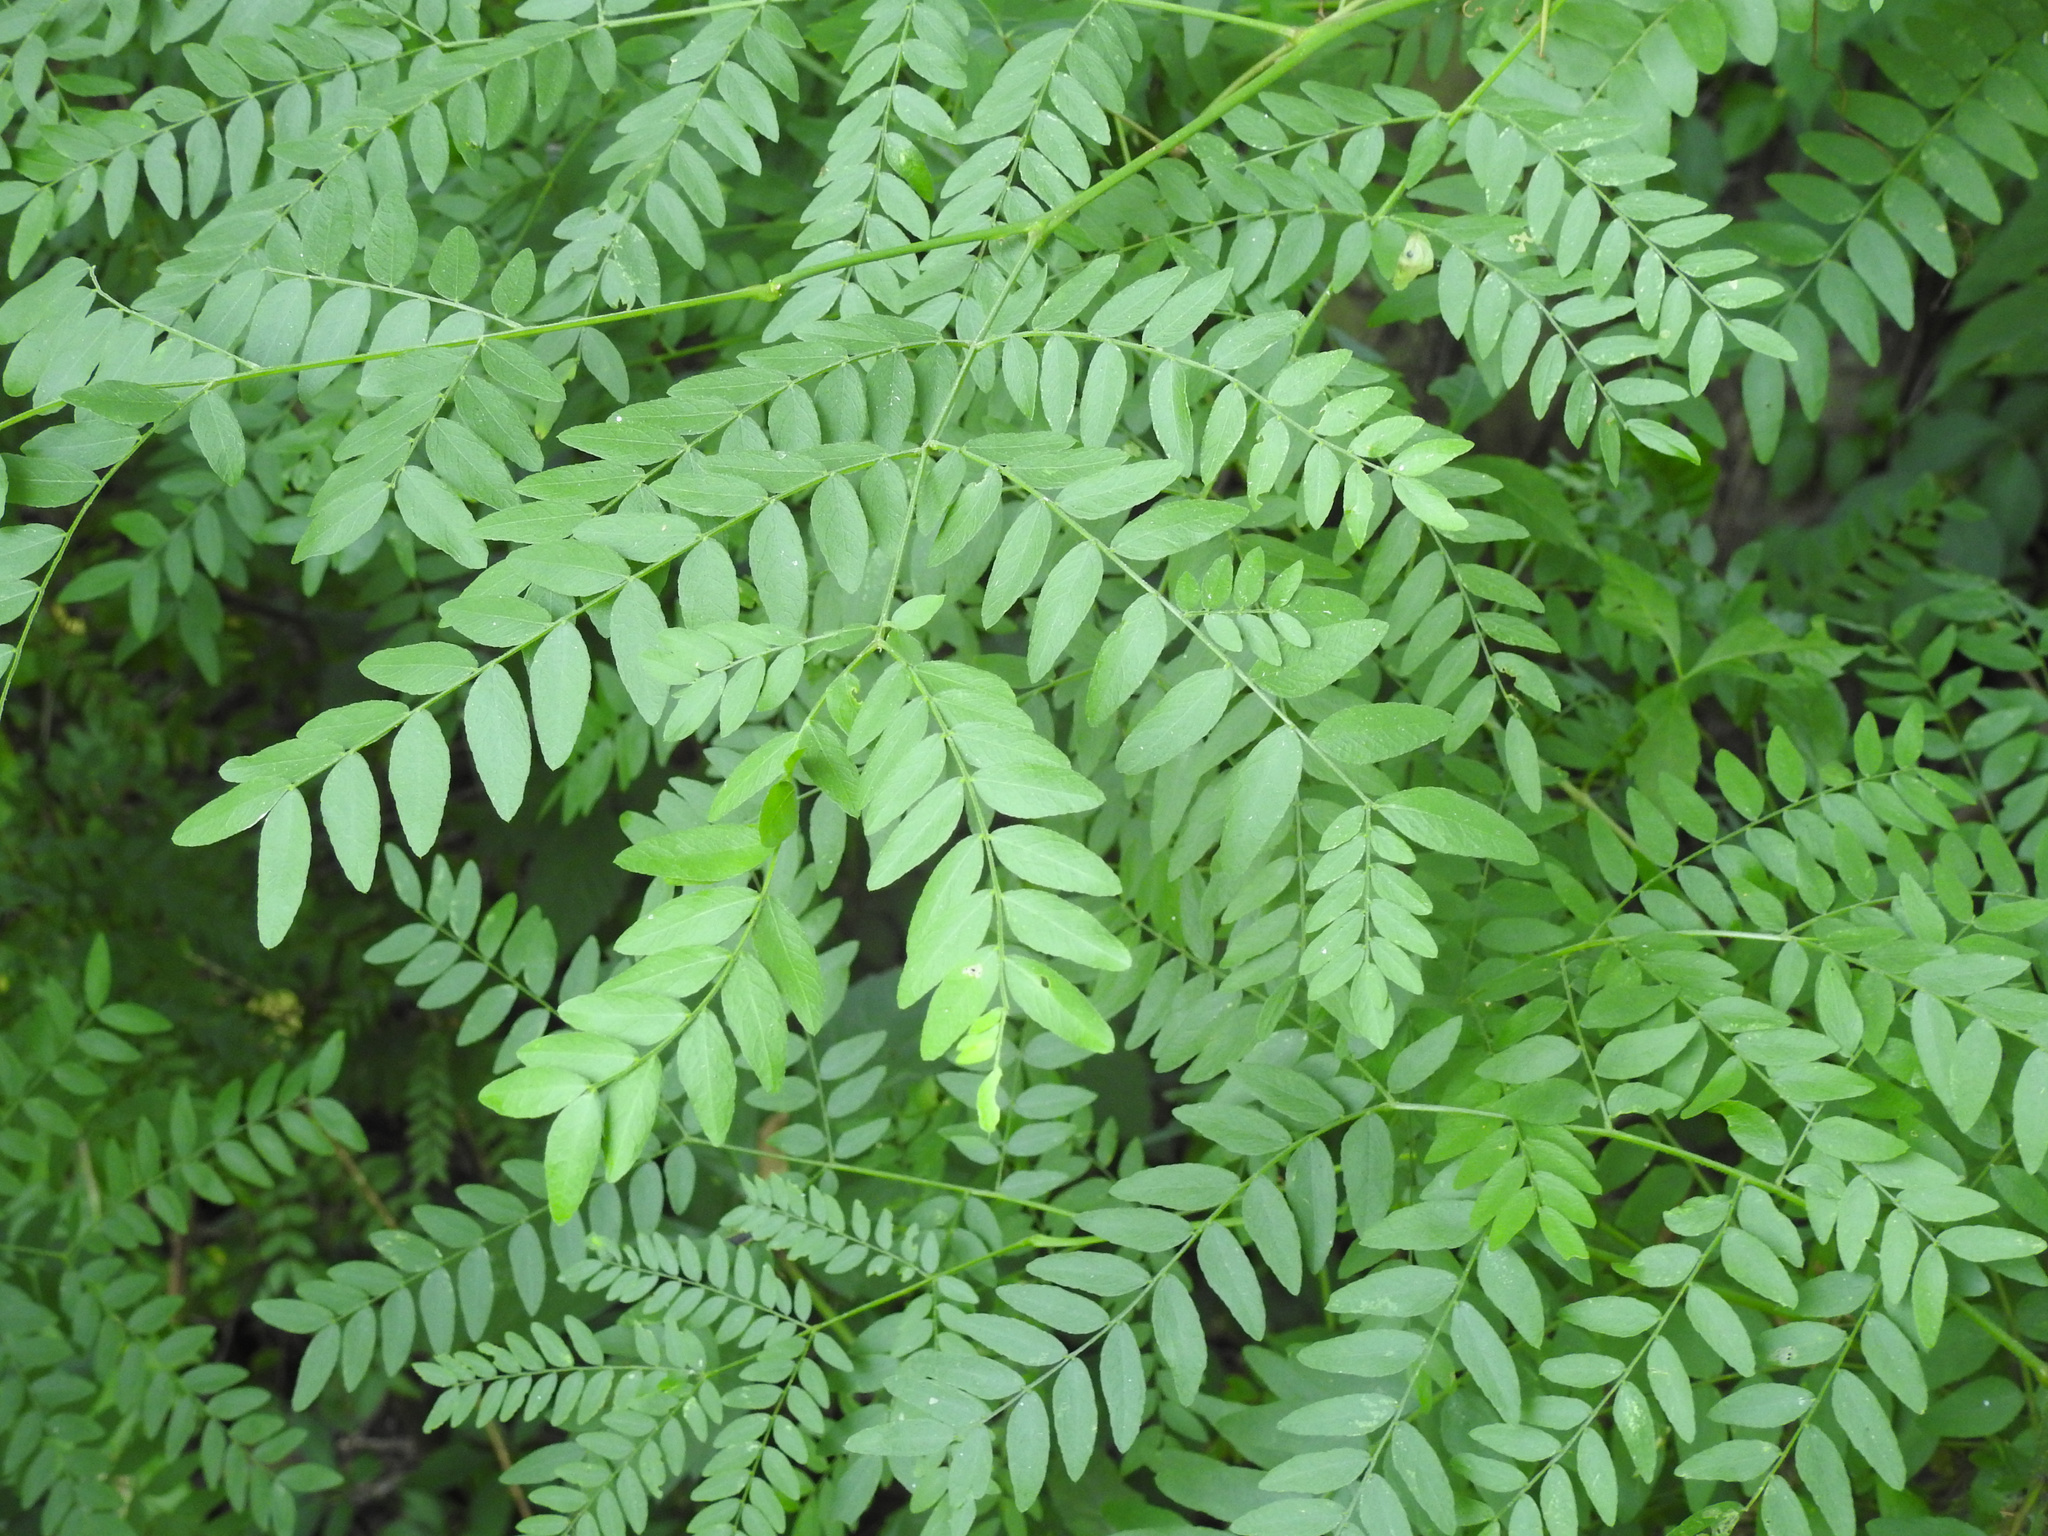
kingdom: Plantae
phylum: Tracheophyta
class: Magnoliopsida
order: Fabales
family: Fabaceae
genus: Gleditsia
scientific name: Gleditsia triacanthos
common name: Common honeylocust
